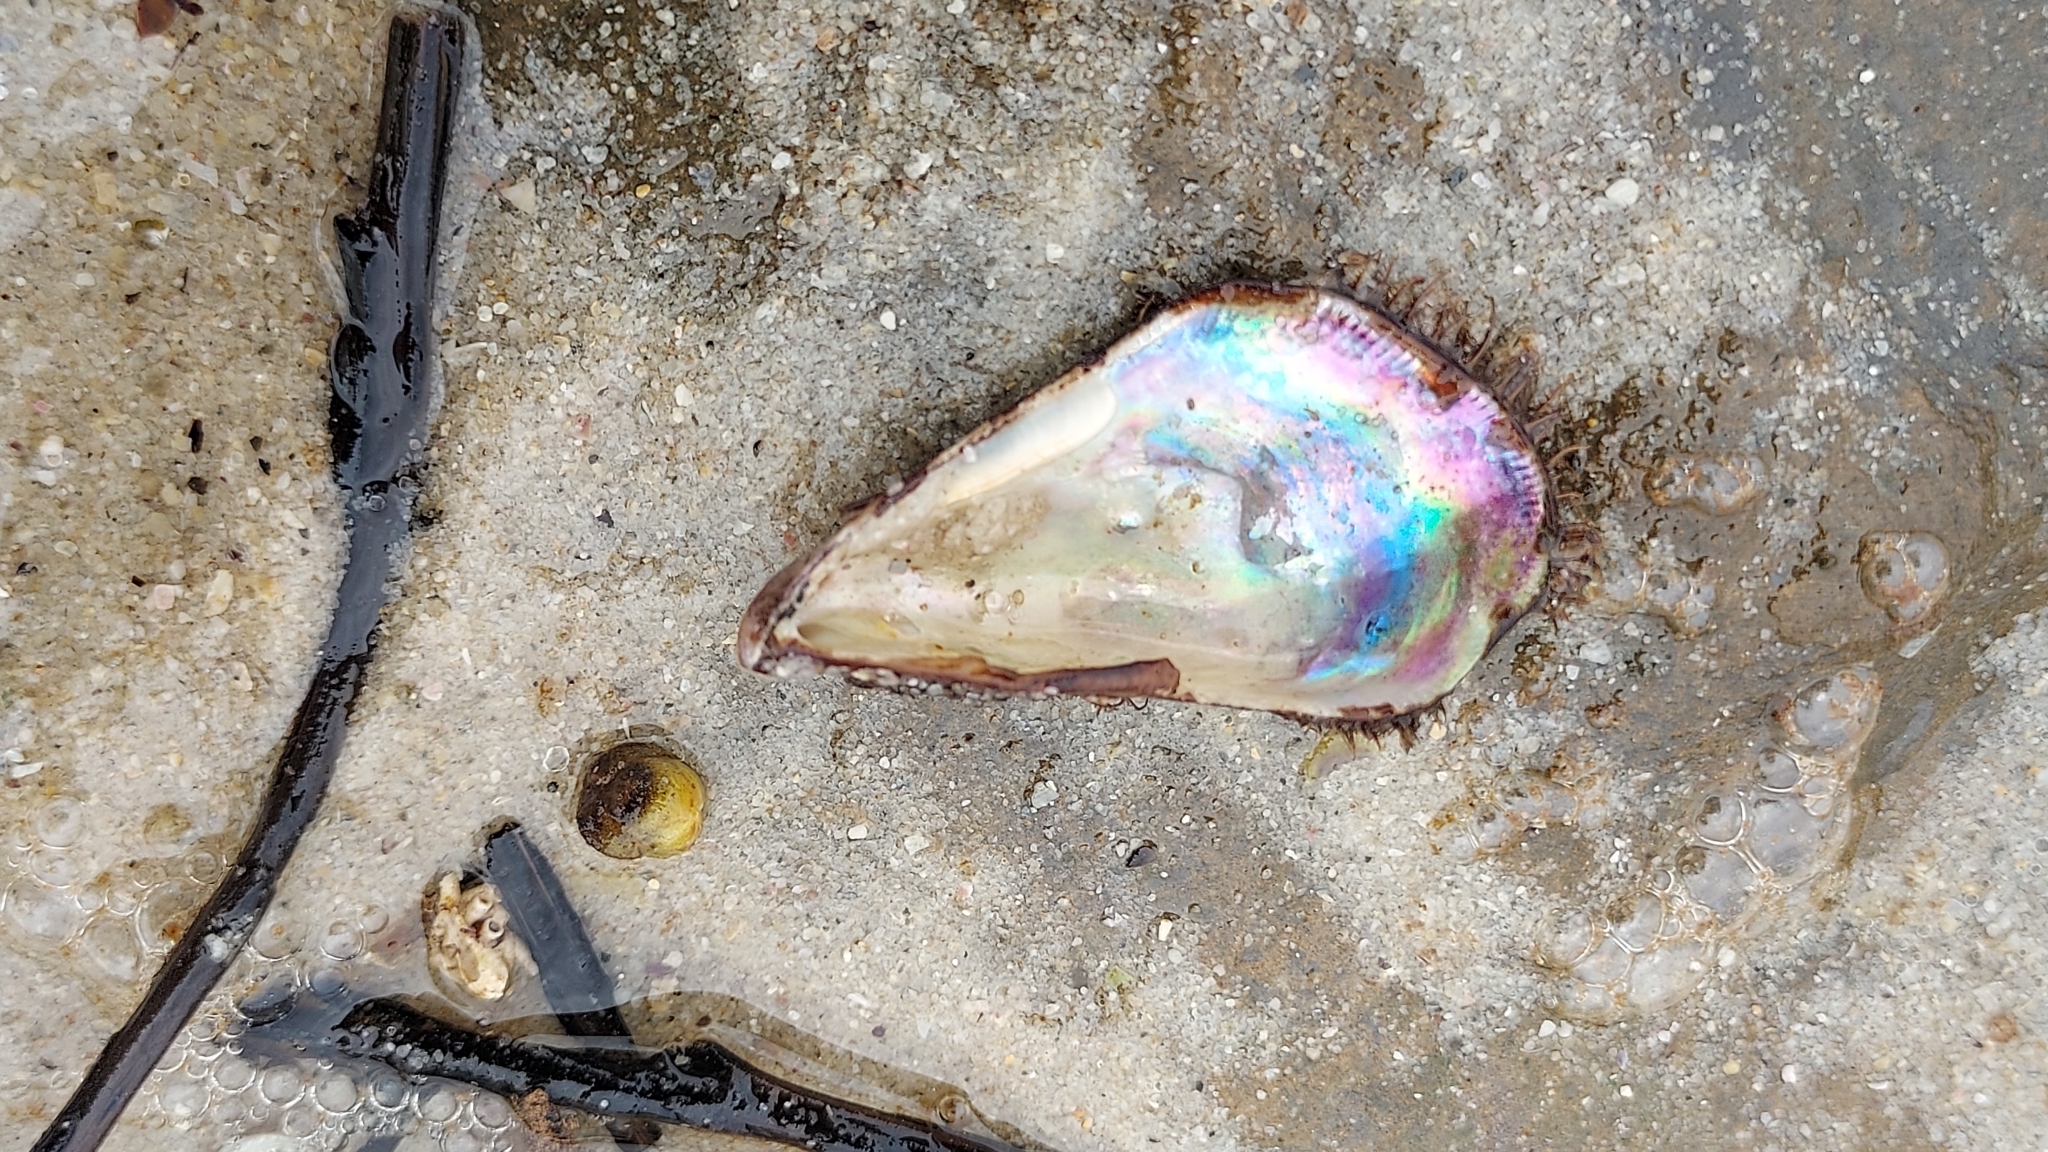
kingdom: Animalia
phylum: Mollusca
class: Bivalvia
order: Mytilida
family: Mytilidae
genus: Trichomya
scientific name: Trichomya hirsuta
